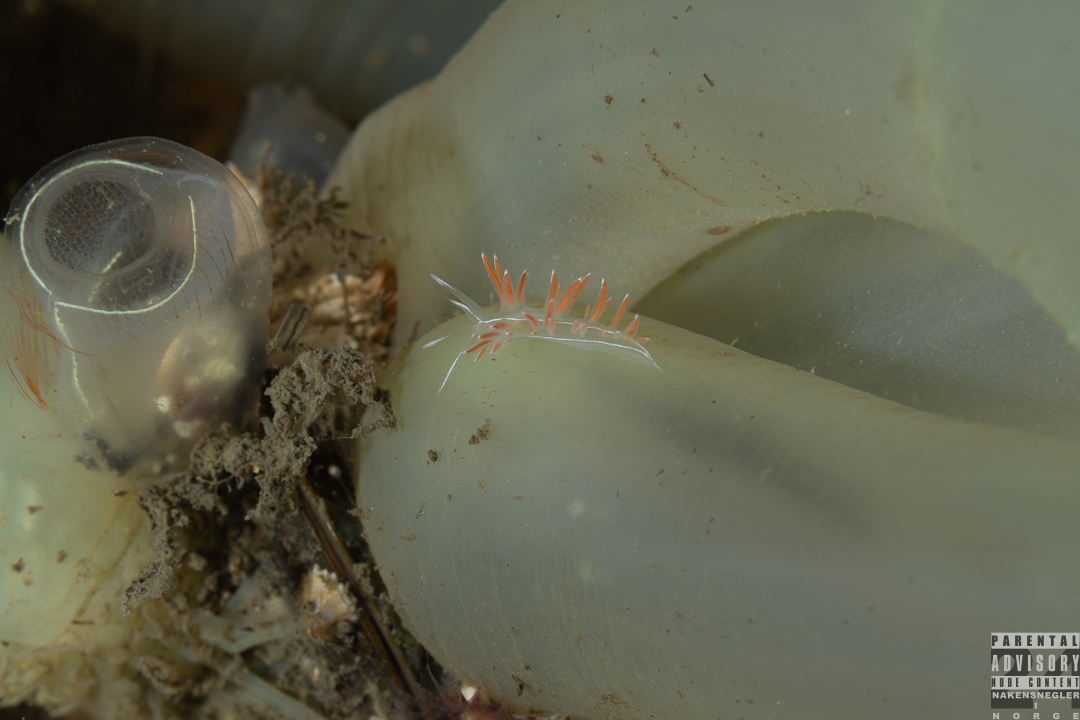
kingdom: Animalia
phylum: Mollusca
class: Gastropoda
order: Nudibranchia
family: Coryphellidae
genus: Coryphella
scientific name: Coryphella lineata
